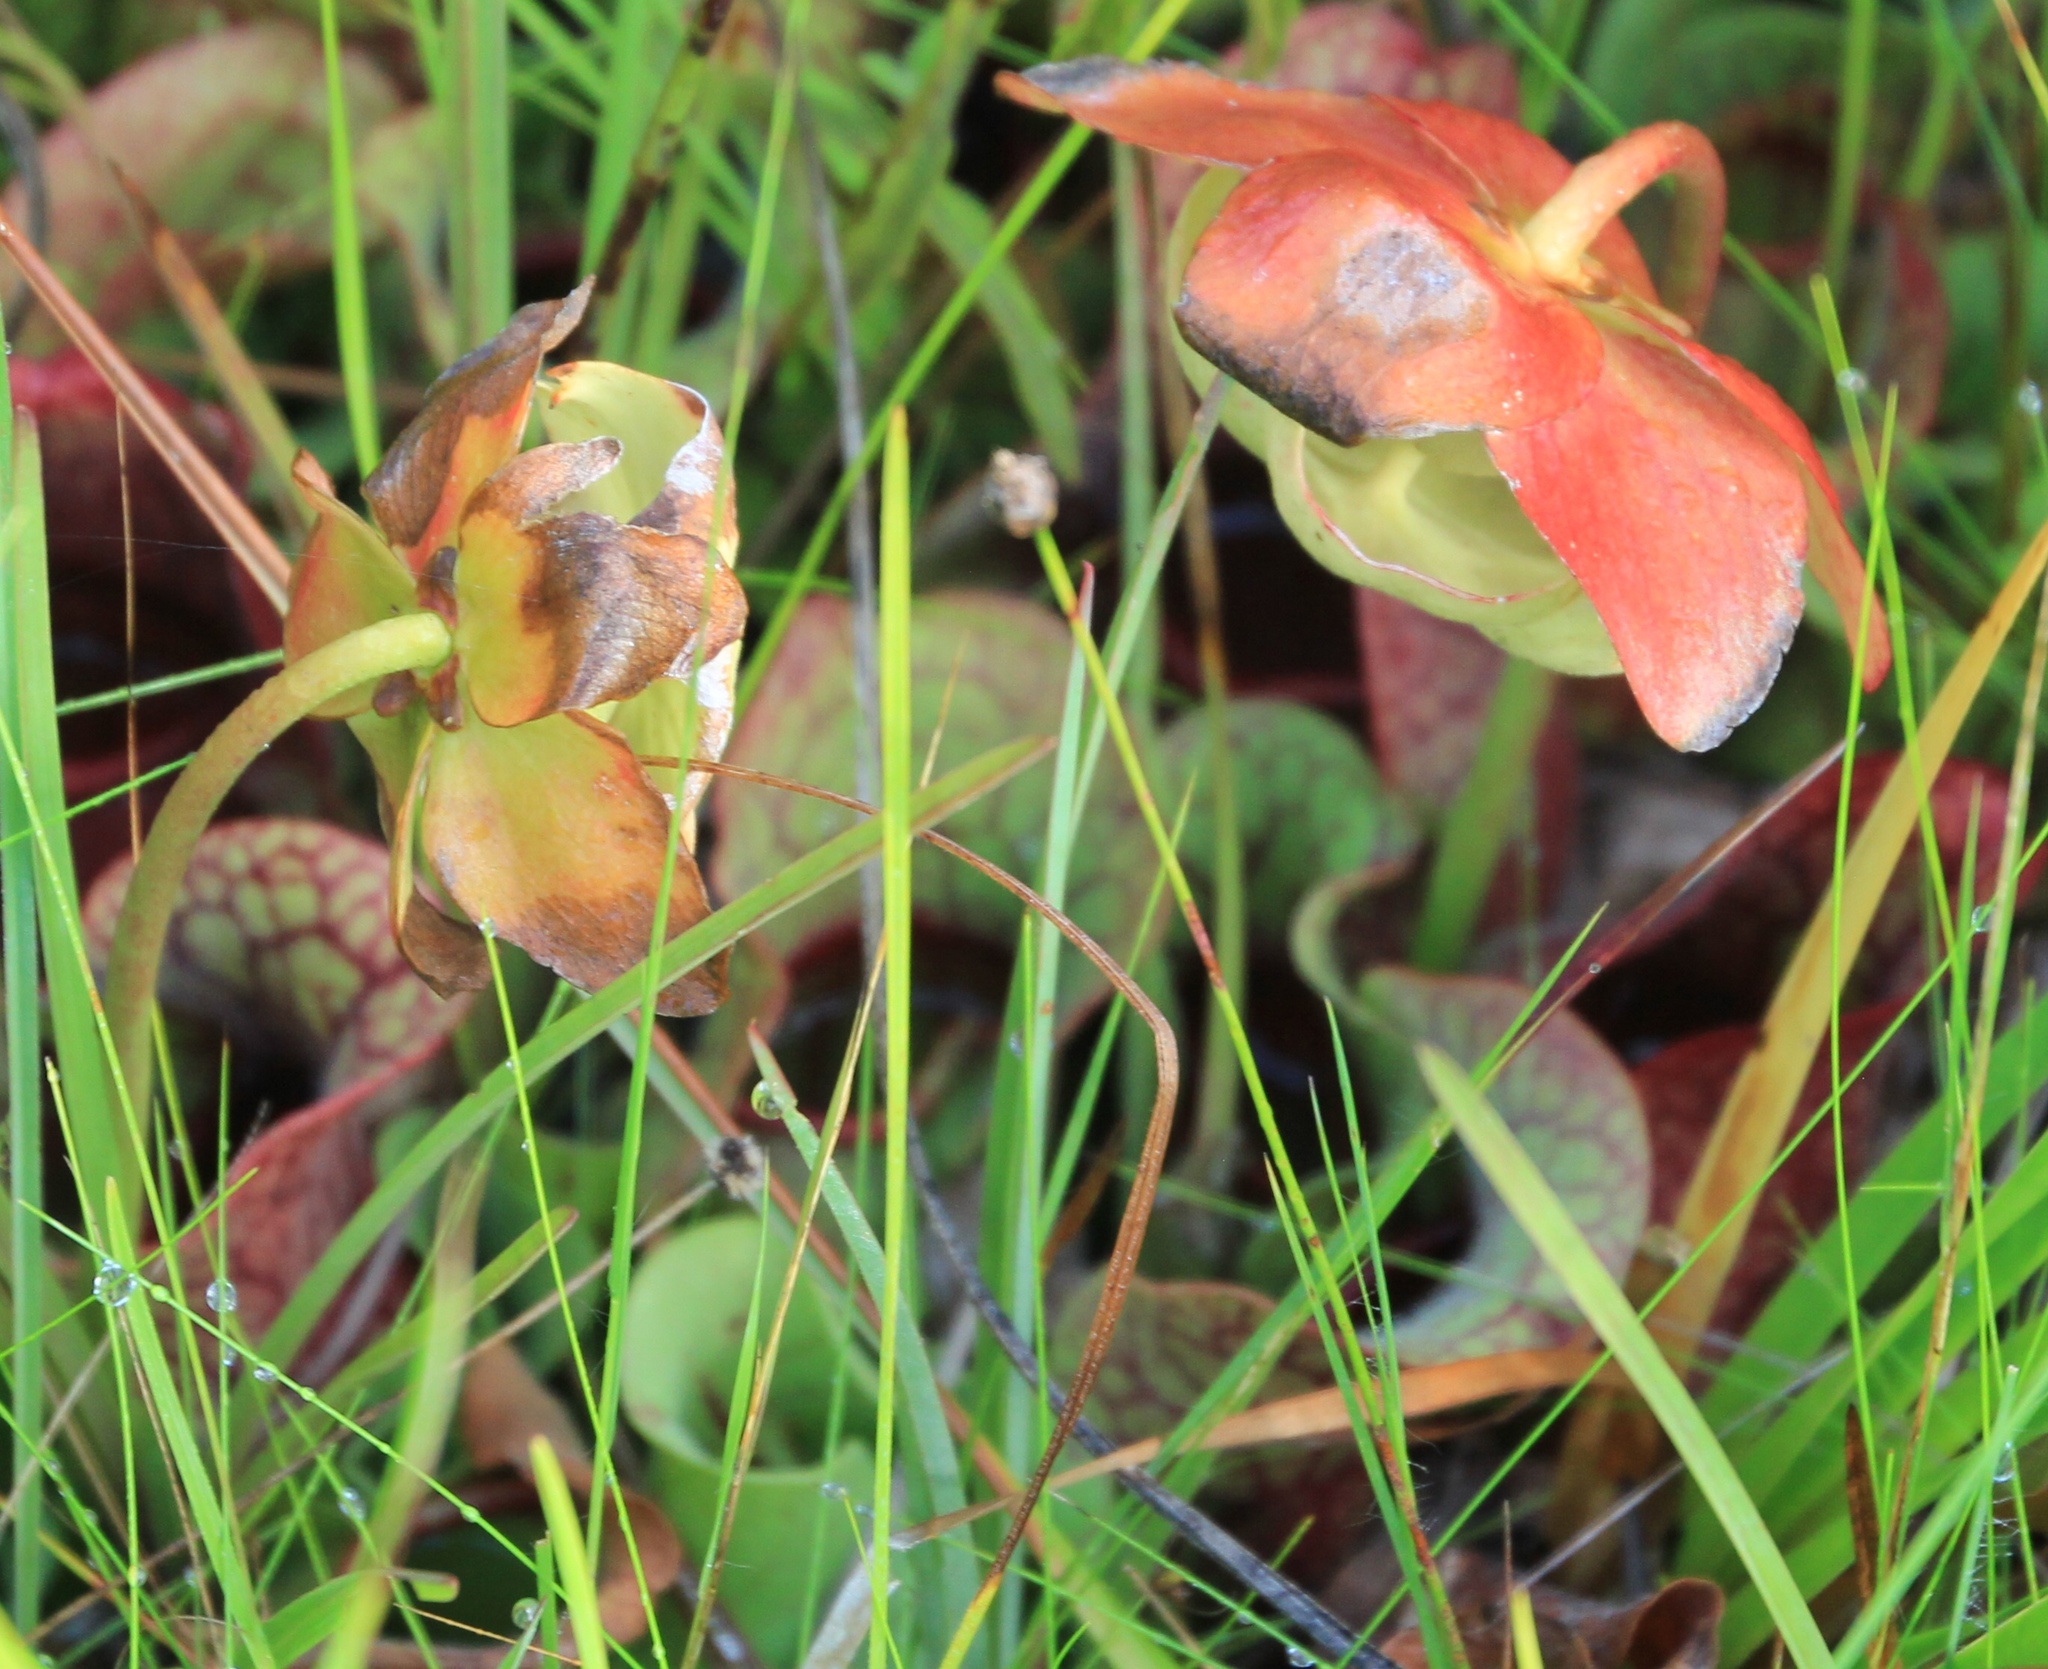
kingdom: Plantae
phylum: Tracheophyta
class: Magnoliopsida
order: Ericales
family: Sarraceniaceae
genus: Sarracenia
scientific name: Sarracenia rosea
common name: Pink pitcherplant
